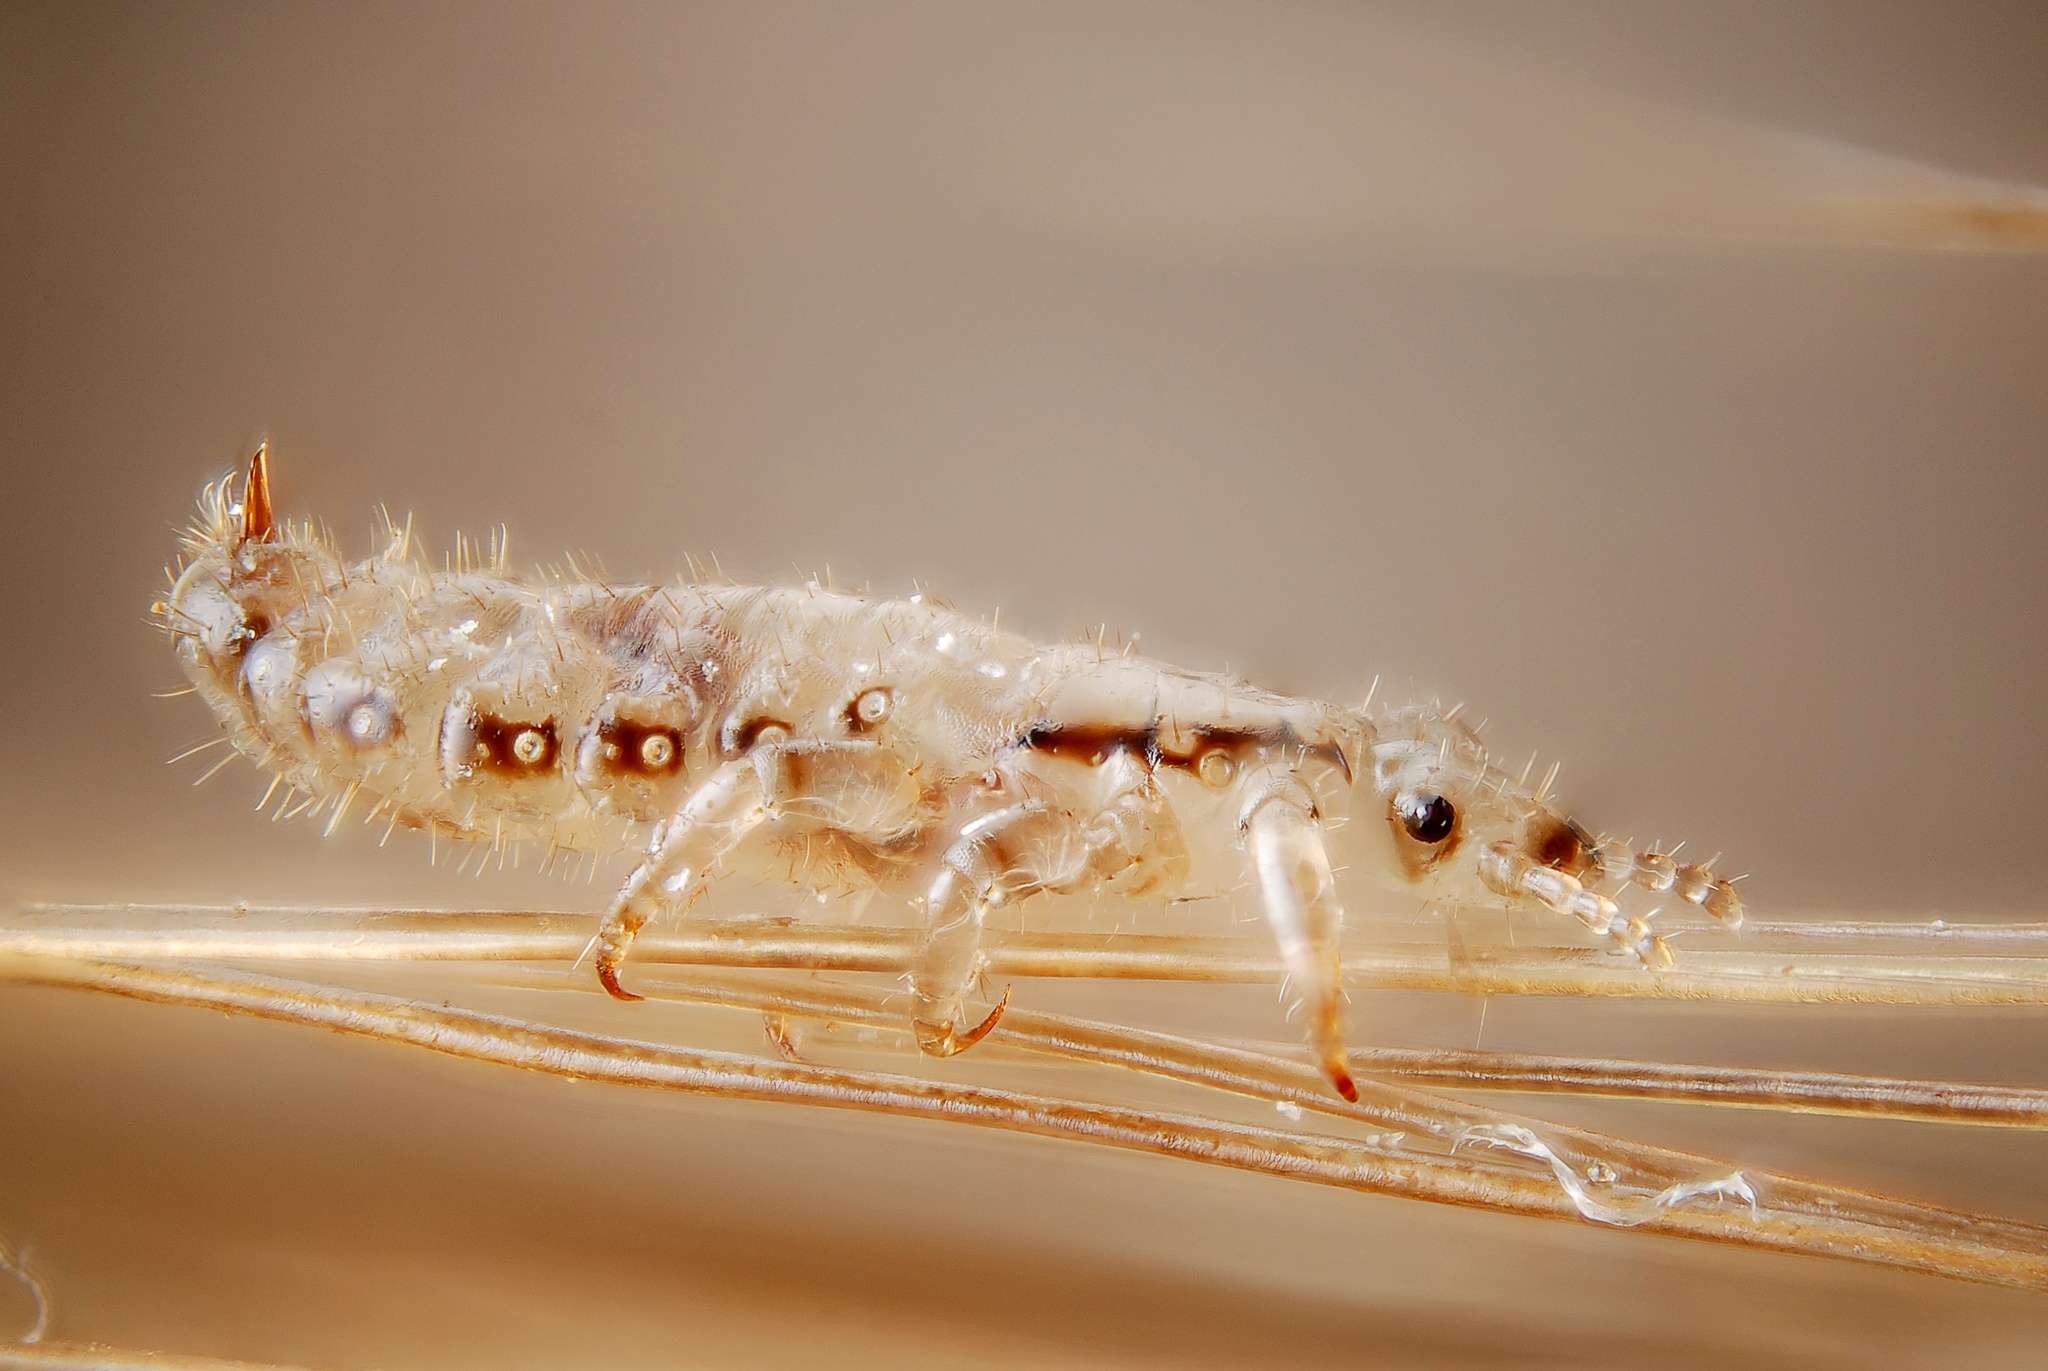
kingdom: Animalia
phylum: Arthropoda
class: Insecta
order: Psocodea
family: Pediculidae
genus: Pediculus
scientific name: Pediculus humanus
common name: Body louse
